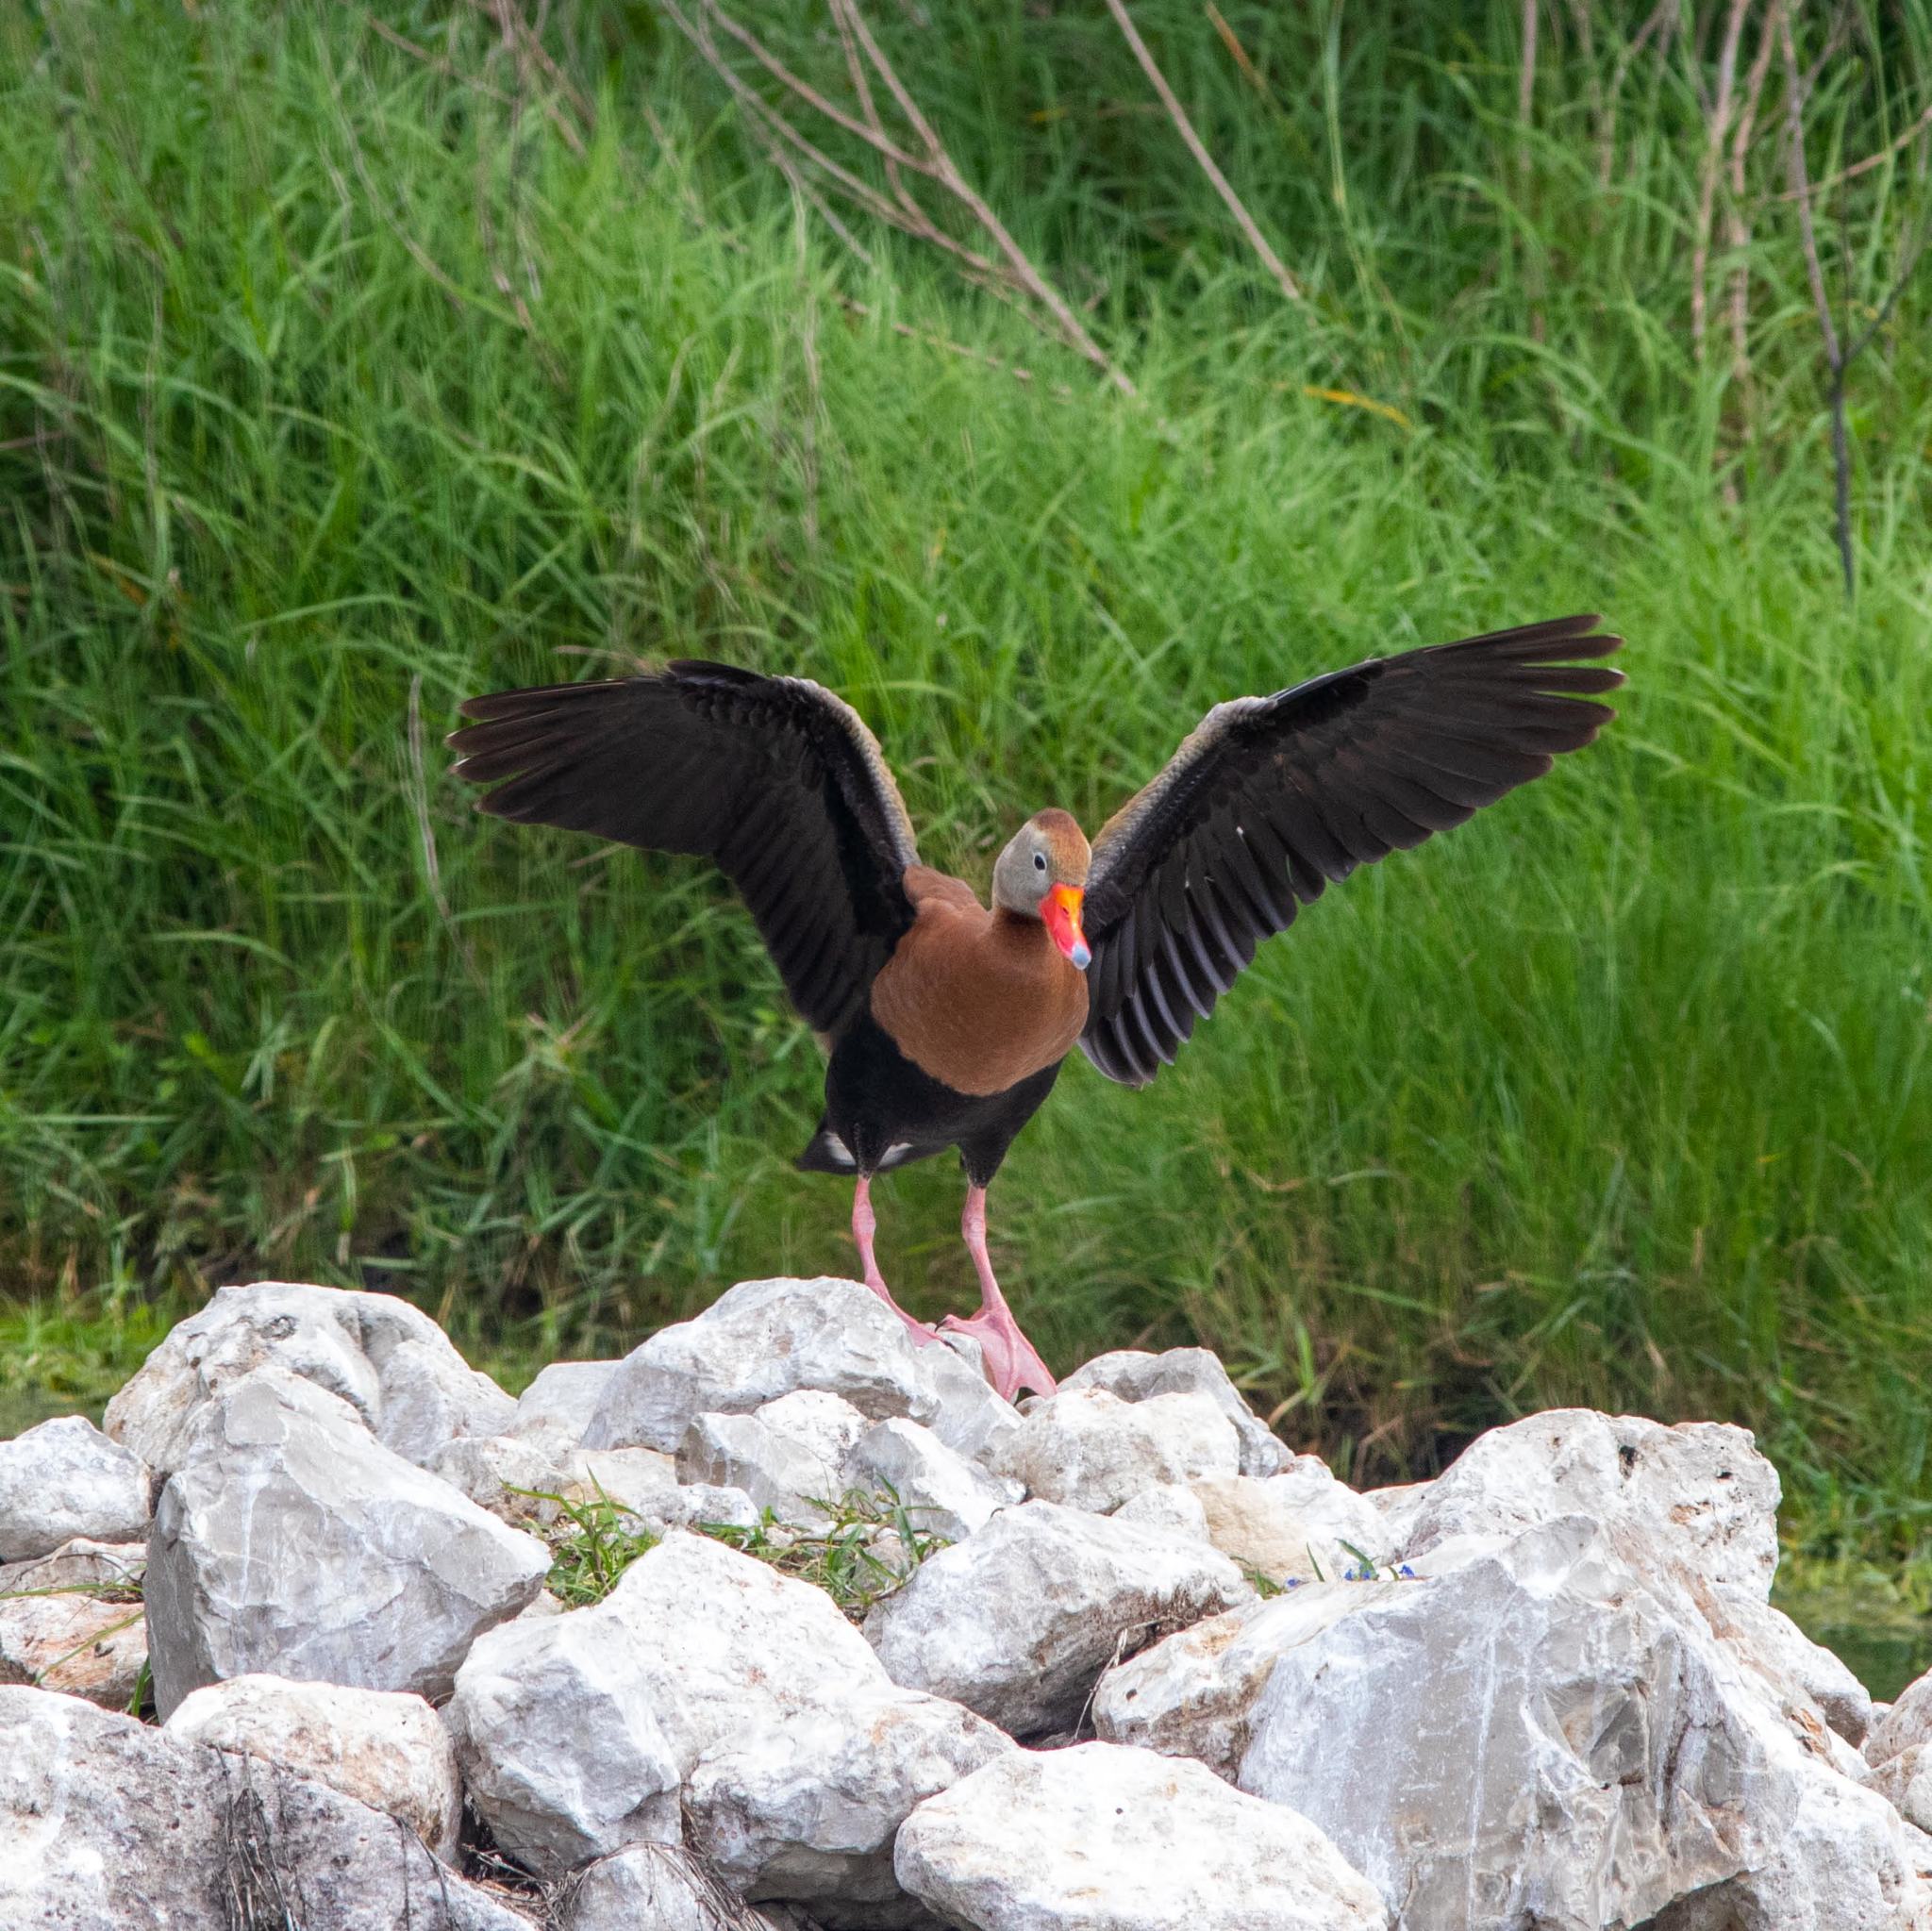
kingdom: Animalia
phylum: Chordata
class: Aves
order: Anseriformes
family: Anatidae
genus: Dendrocygna
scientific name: Dendrocygna autumnalis
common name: Black-bellied whistling duck
